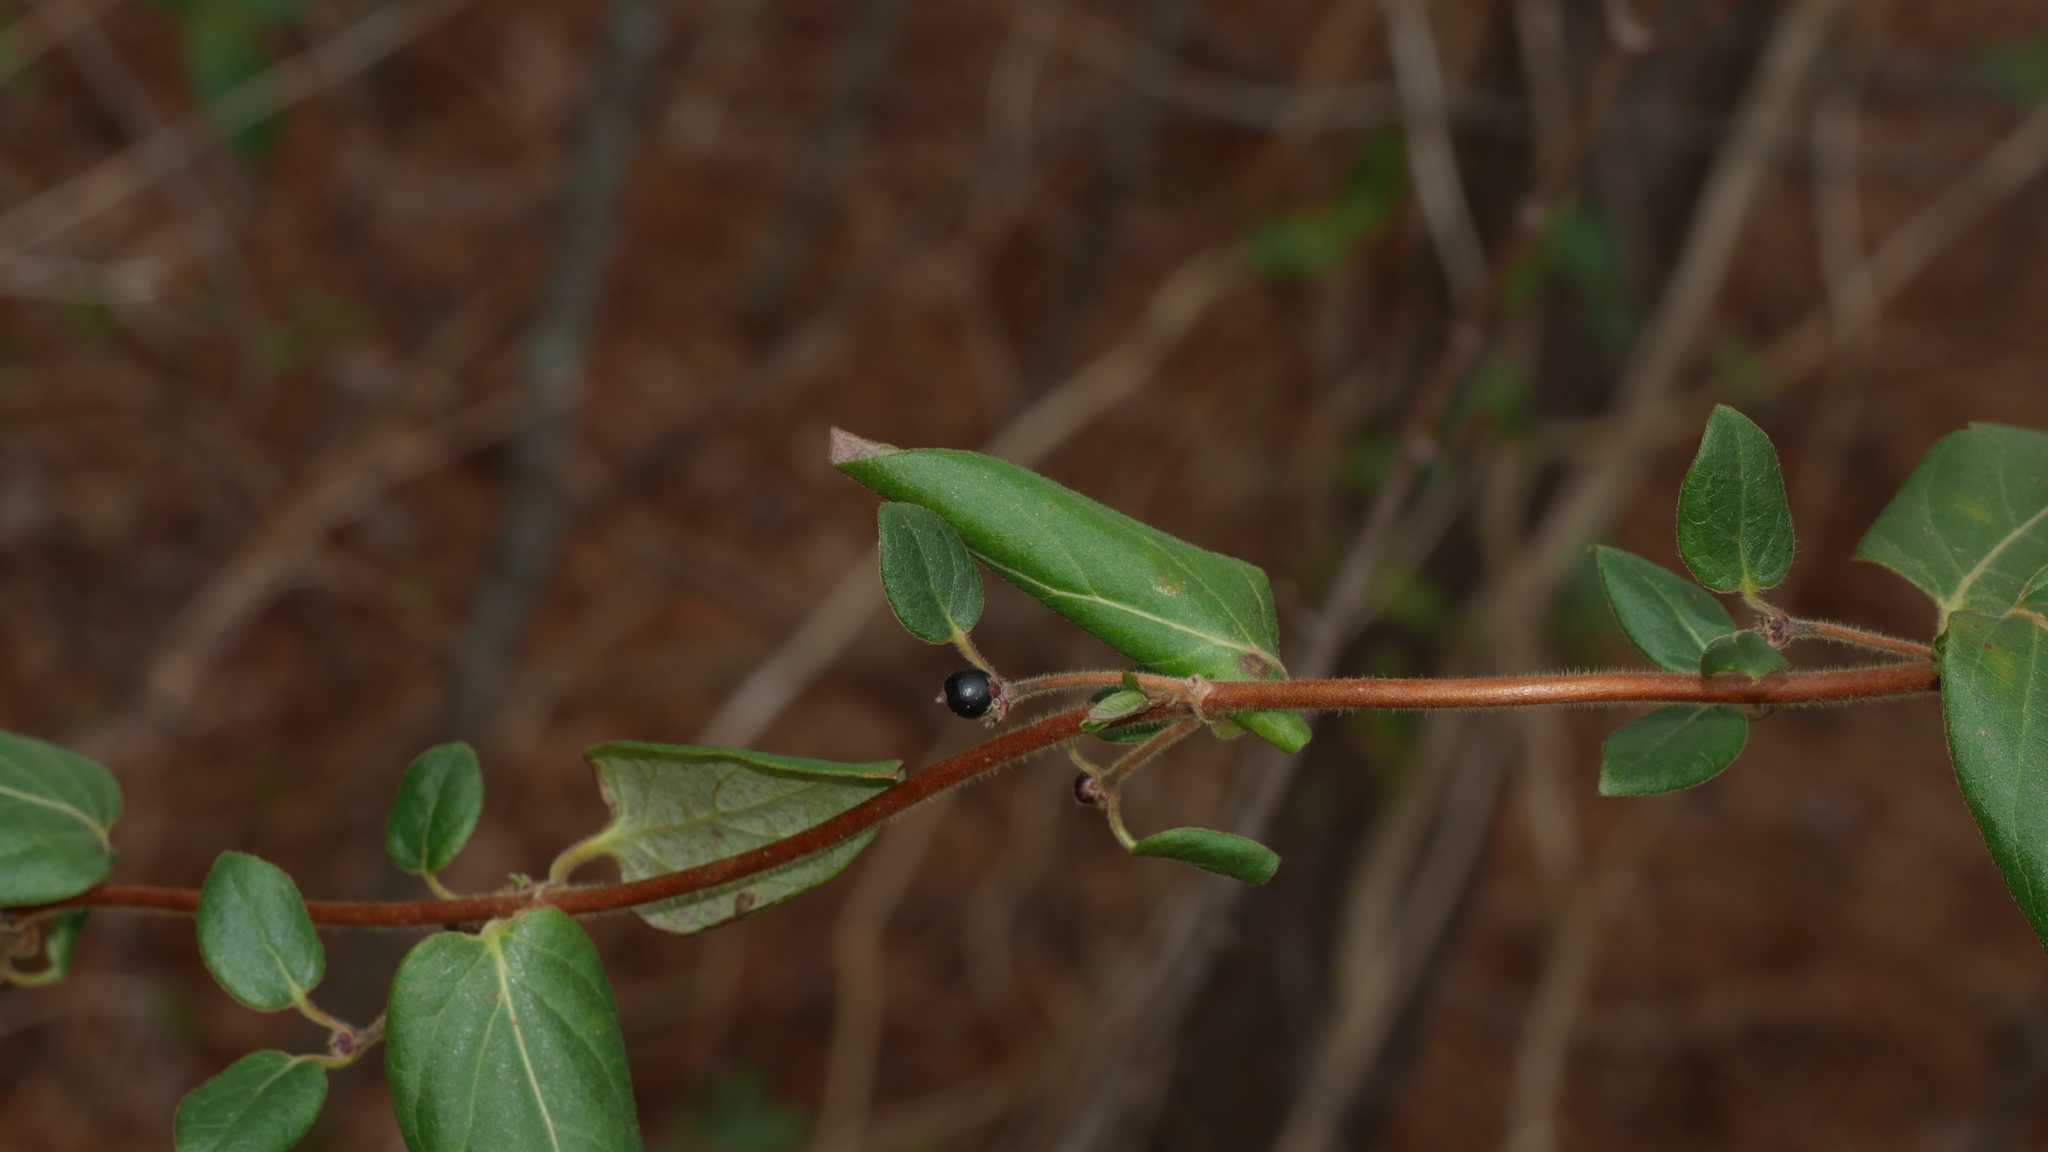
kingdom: Plantae
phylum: Tracheophyta
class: Magnoliopsida
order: Dipsacales
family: Caprifoliaceae
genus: Lonicera
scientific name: Lonicera japonica
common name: Japanese honeysuckle
